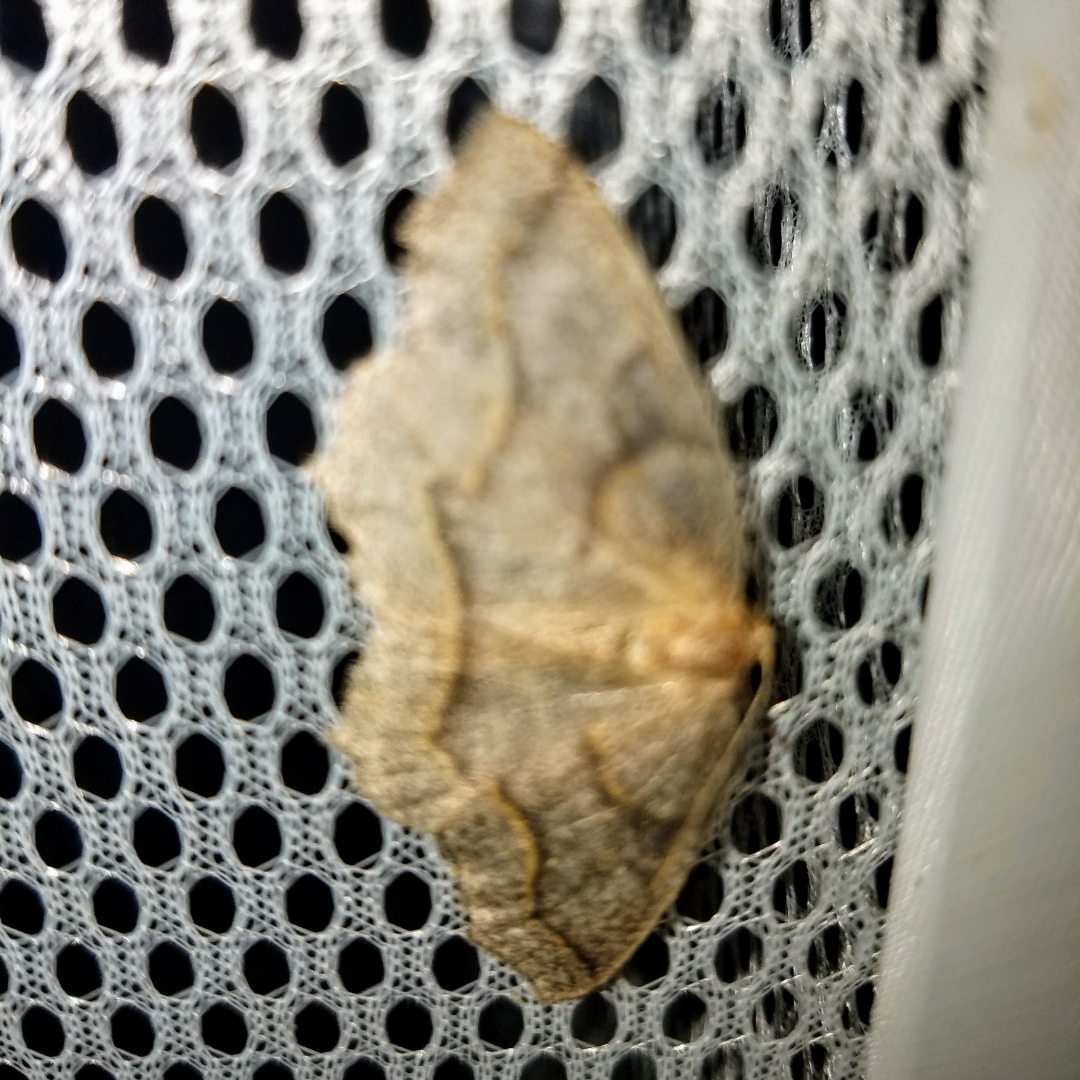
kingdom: Animalia
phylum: Arthropoda
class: Insecta
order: Lepidoptera
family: Geometridae
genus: Lambdina
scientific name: Lambdina fiscellaria
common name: Hemlock looper
